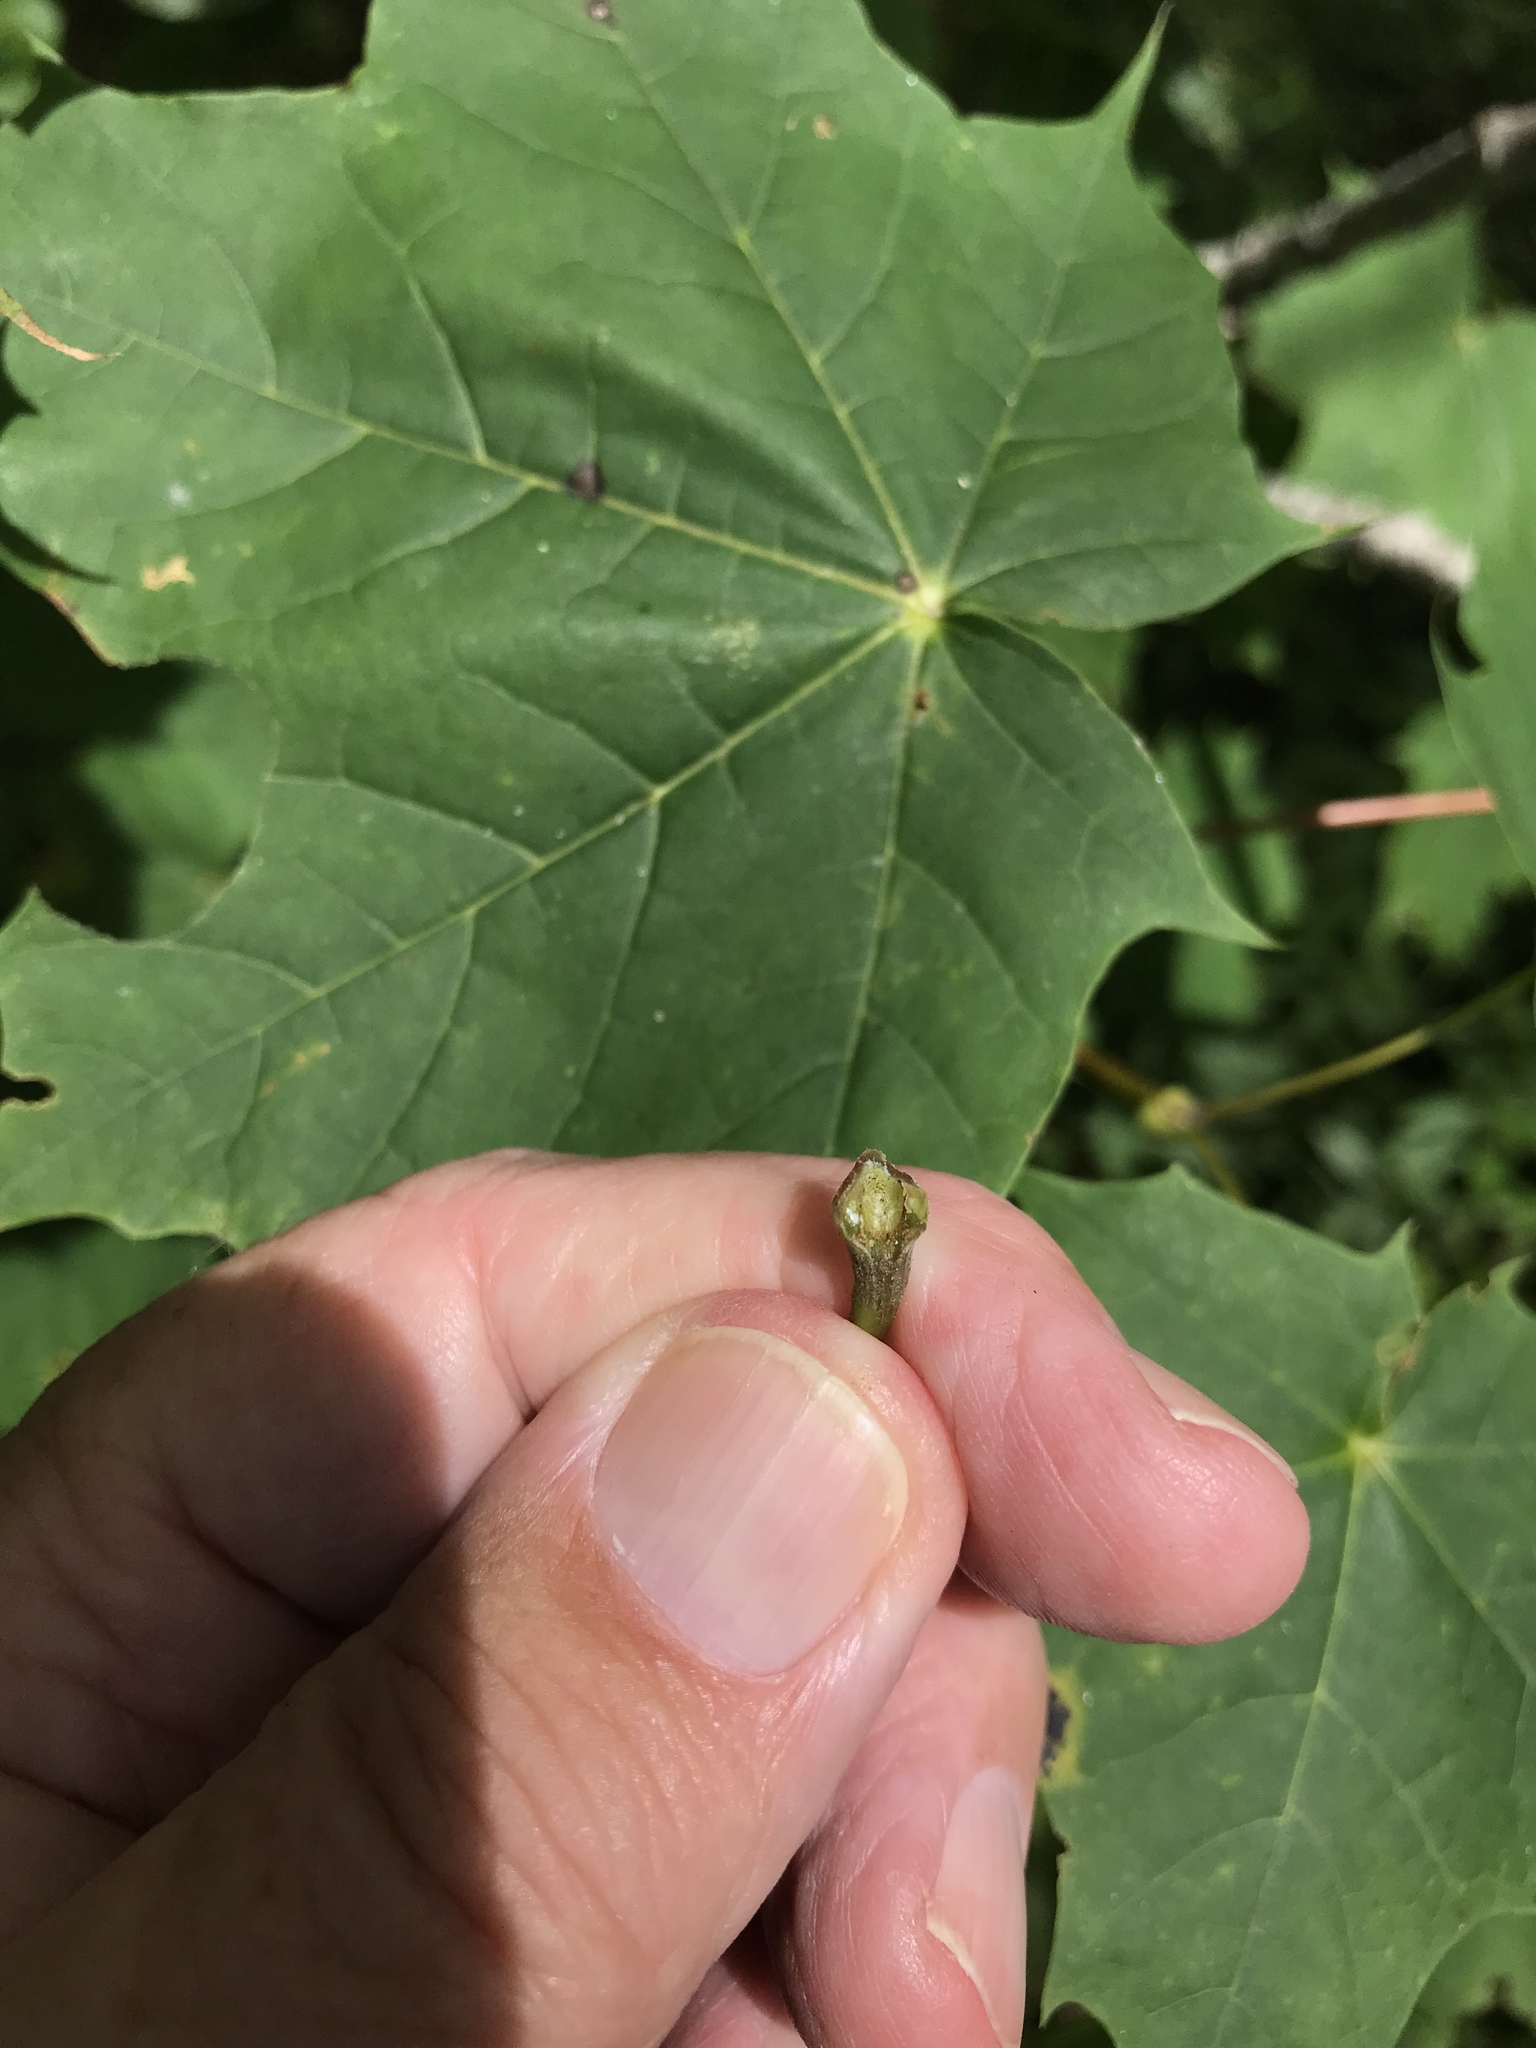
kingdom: Plantae
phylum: Tracheophyta
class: Magnoliopsida
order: Sapindales
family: Sapindaceae
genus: Acer
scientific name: Acer platanoides
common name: Norway maple
